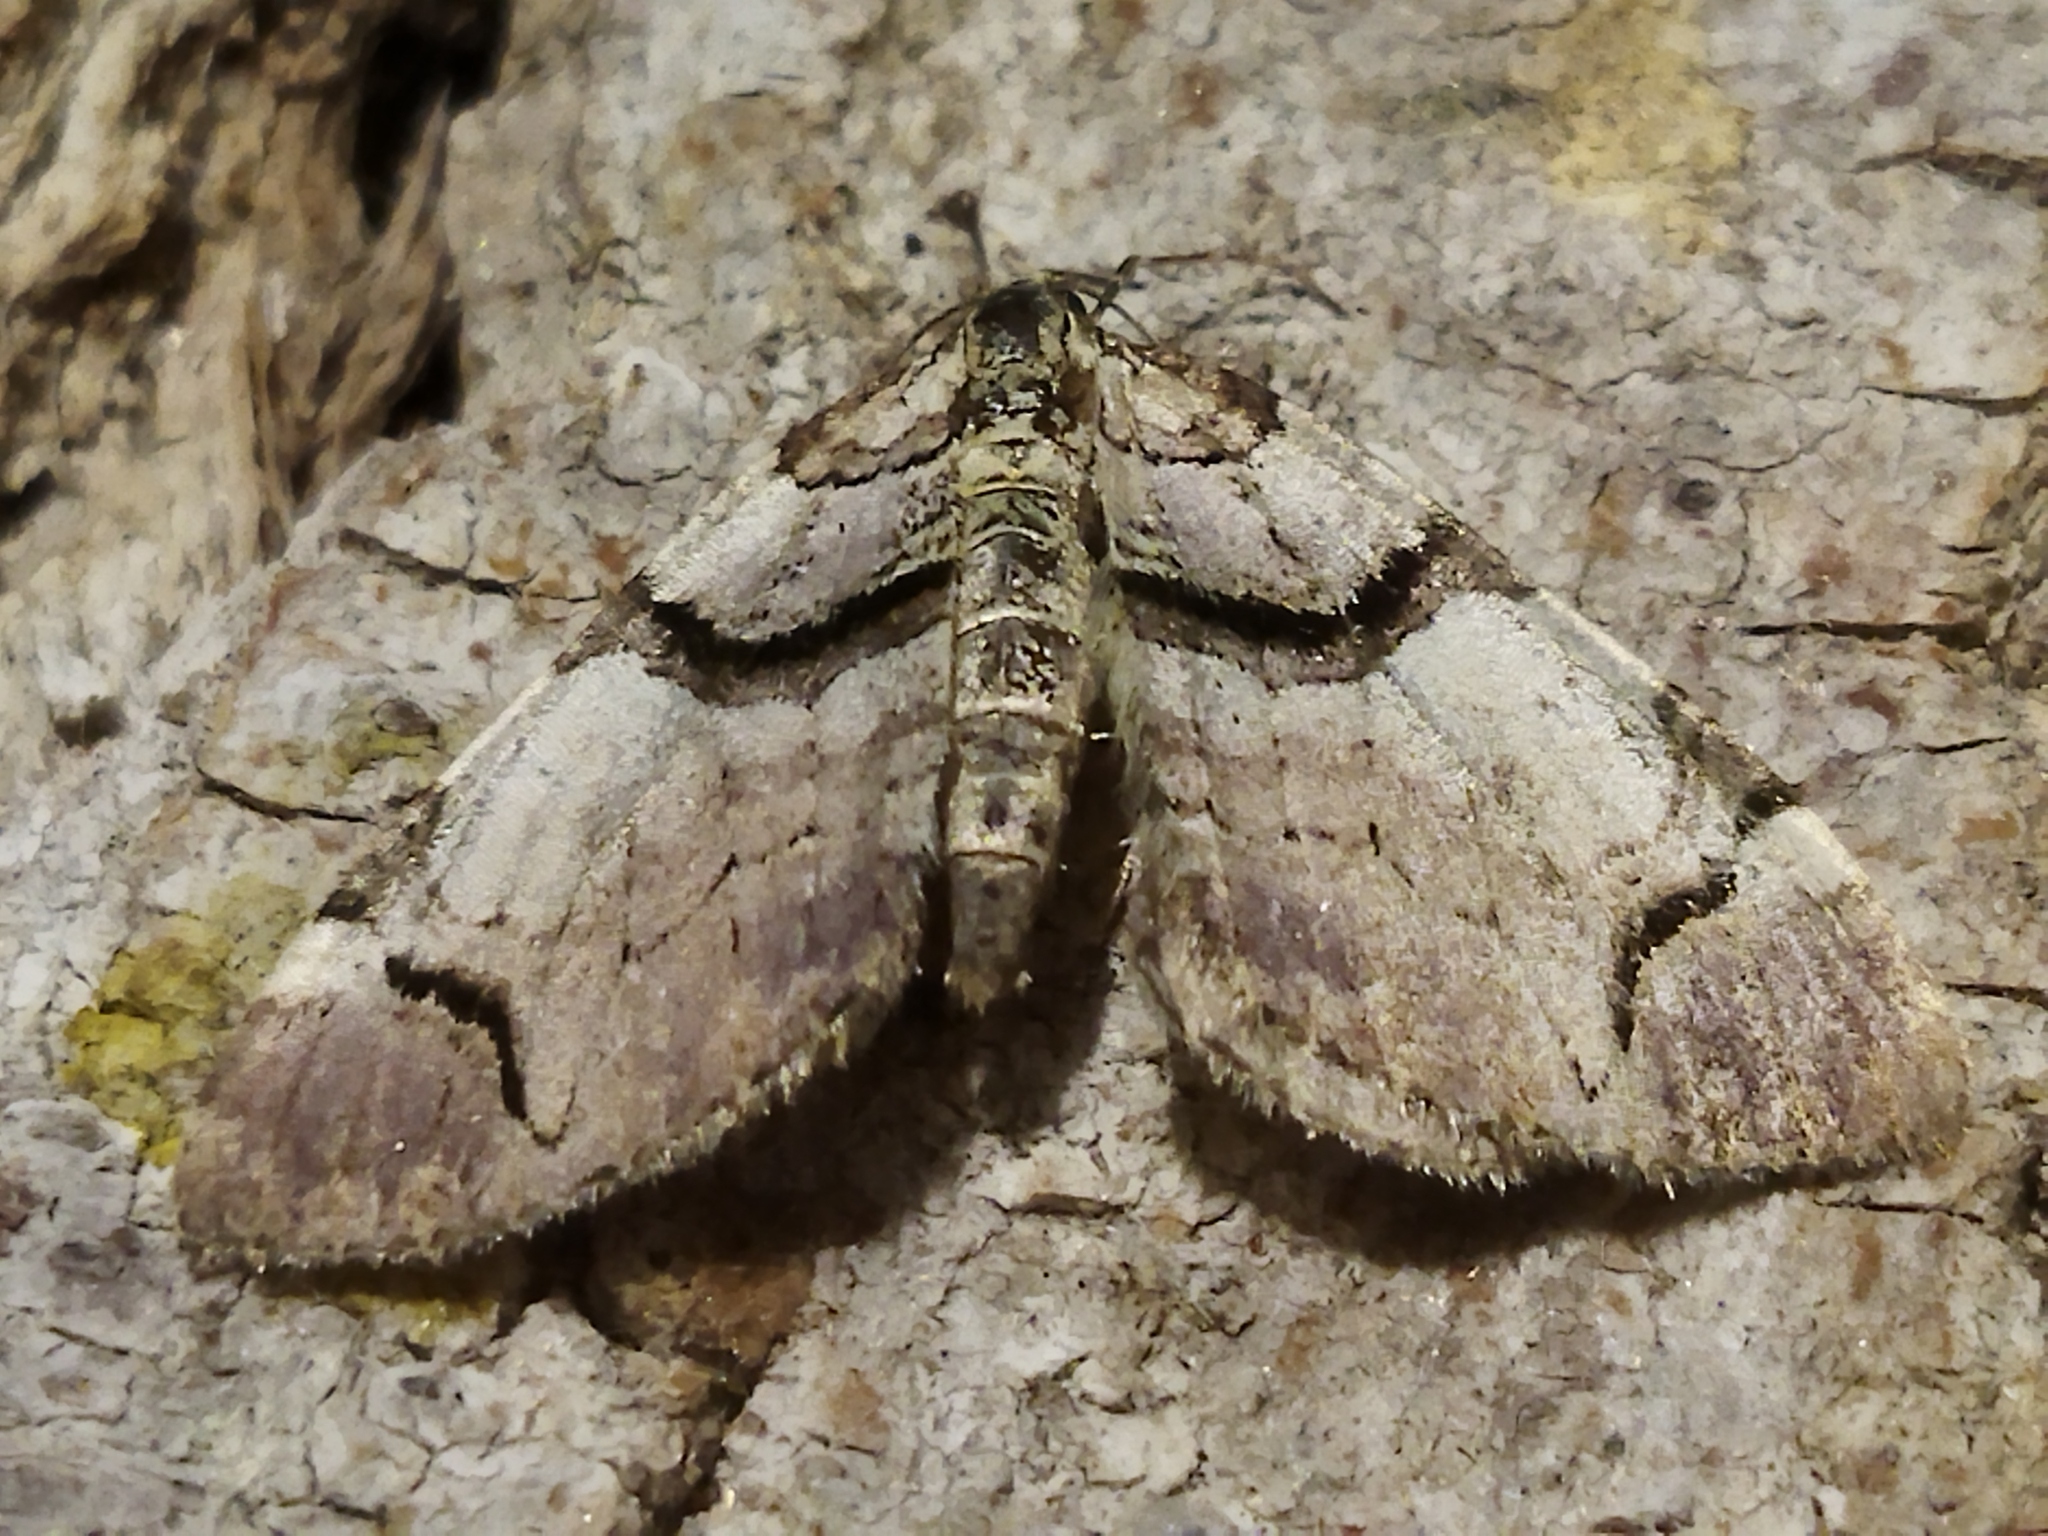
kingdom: Animalia
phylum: Arthropoda
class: Insecta
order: Lepidoptera
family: Geometridae
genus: Anticlea
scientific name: Anticlea derivata
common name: Streamer
